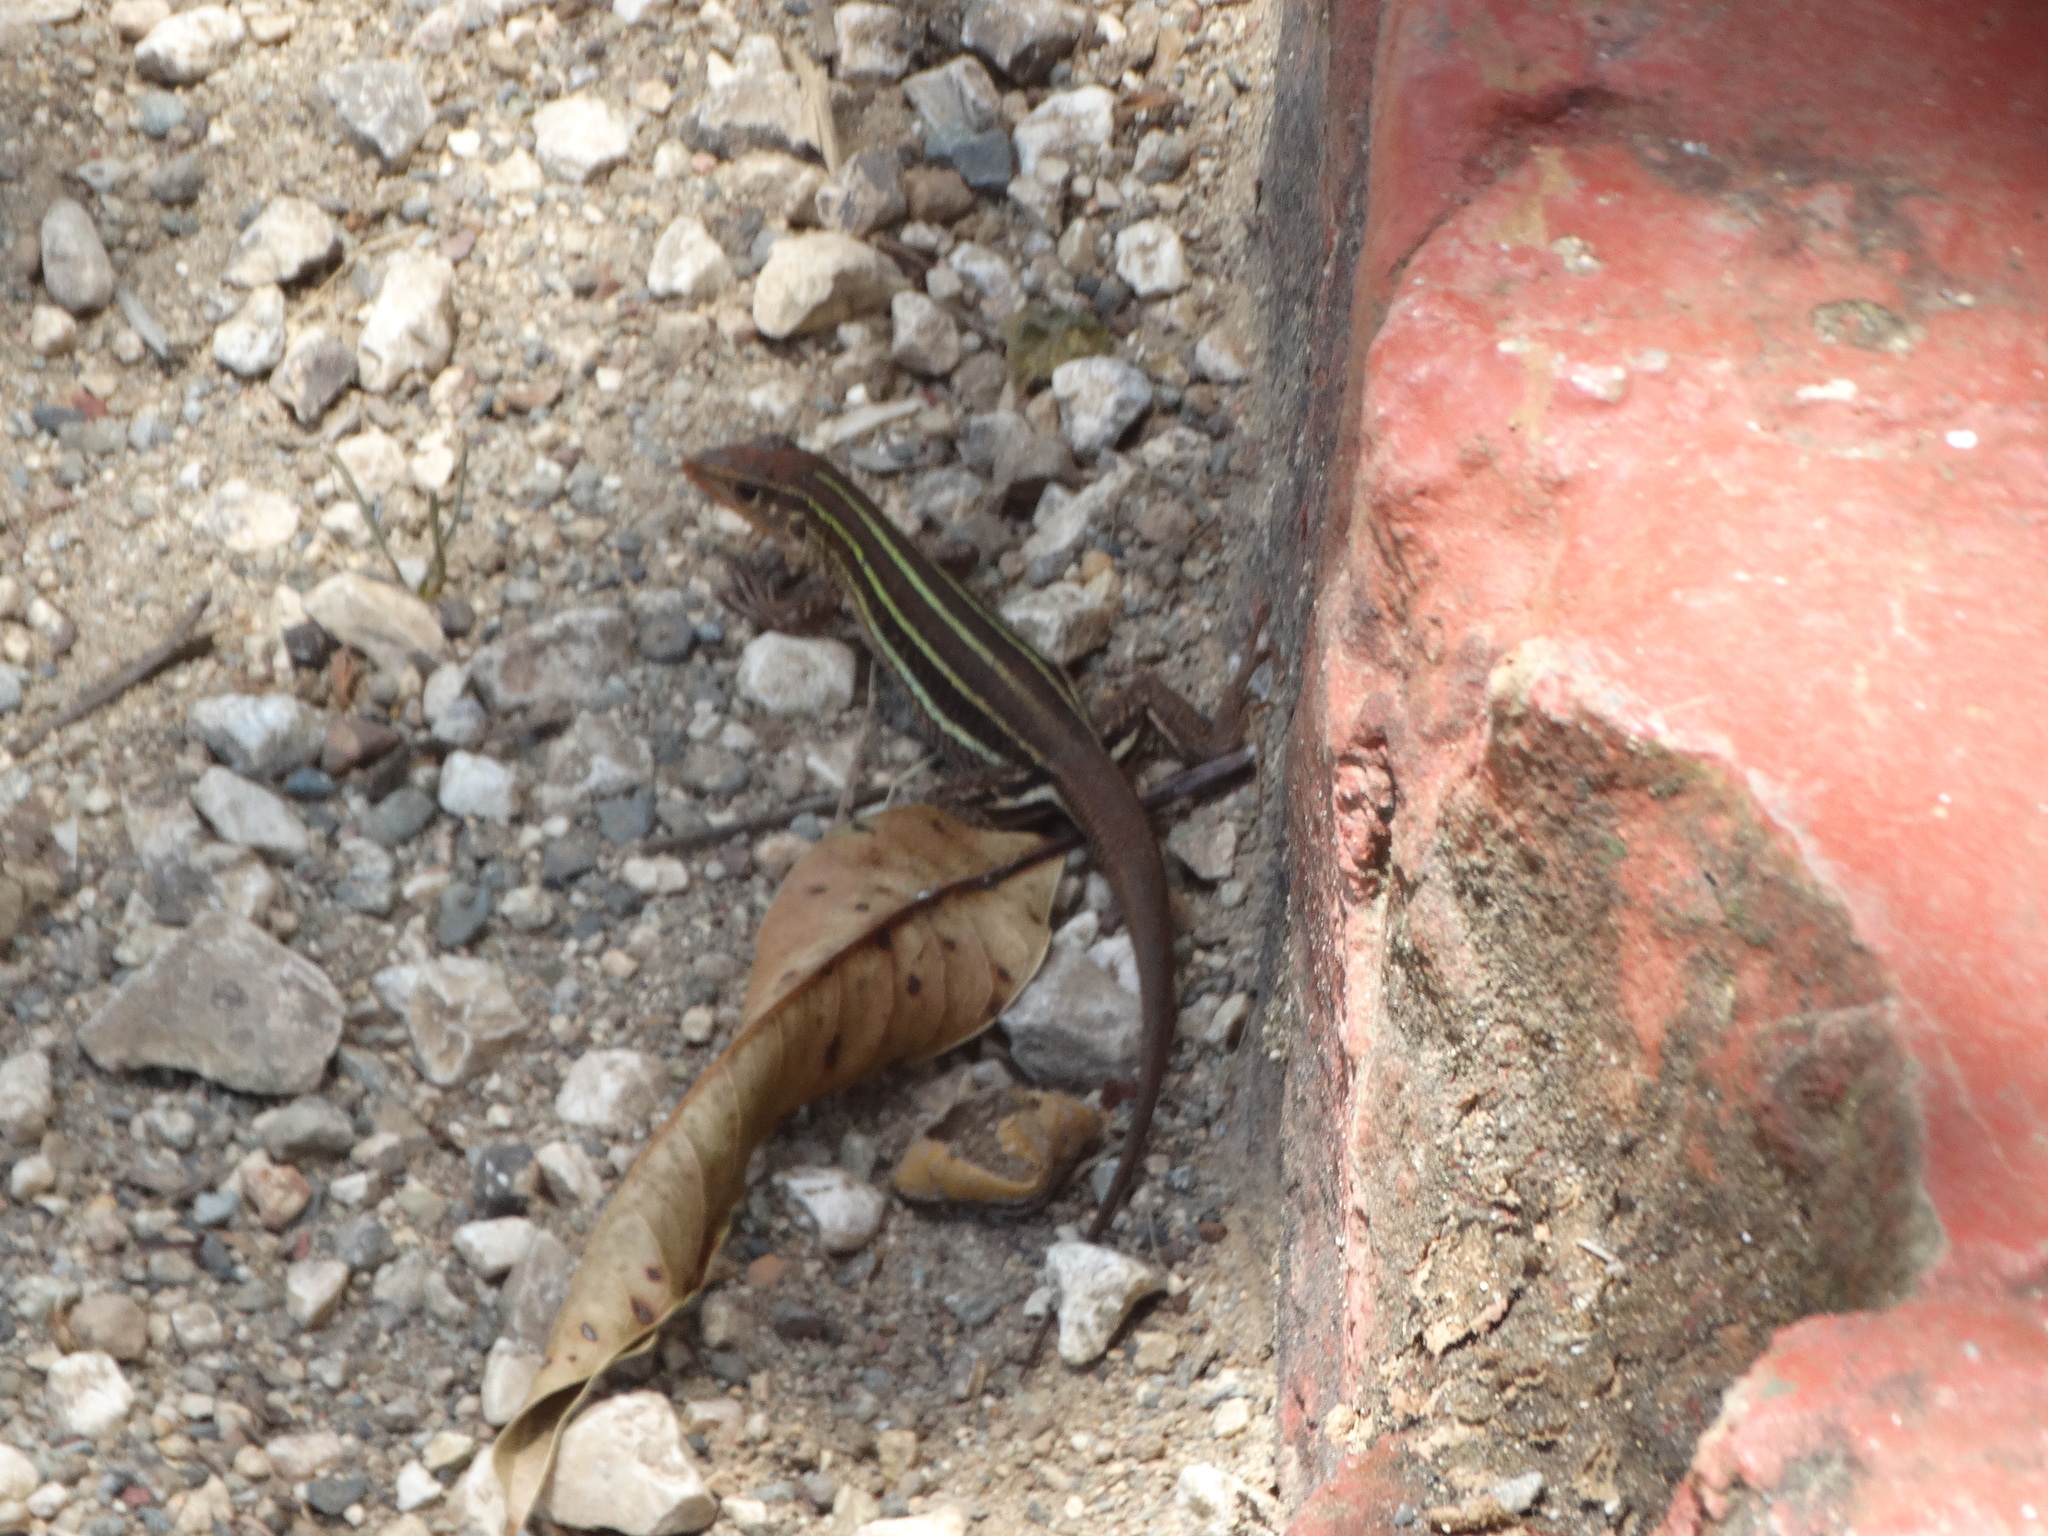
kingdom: Animalia
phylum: Chordata
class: Squamata
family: Teiidae
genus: Pholidoscelis
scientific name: Pholidoscelis auberi
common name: Auber's ameiva
